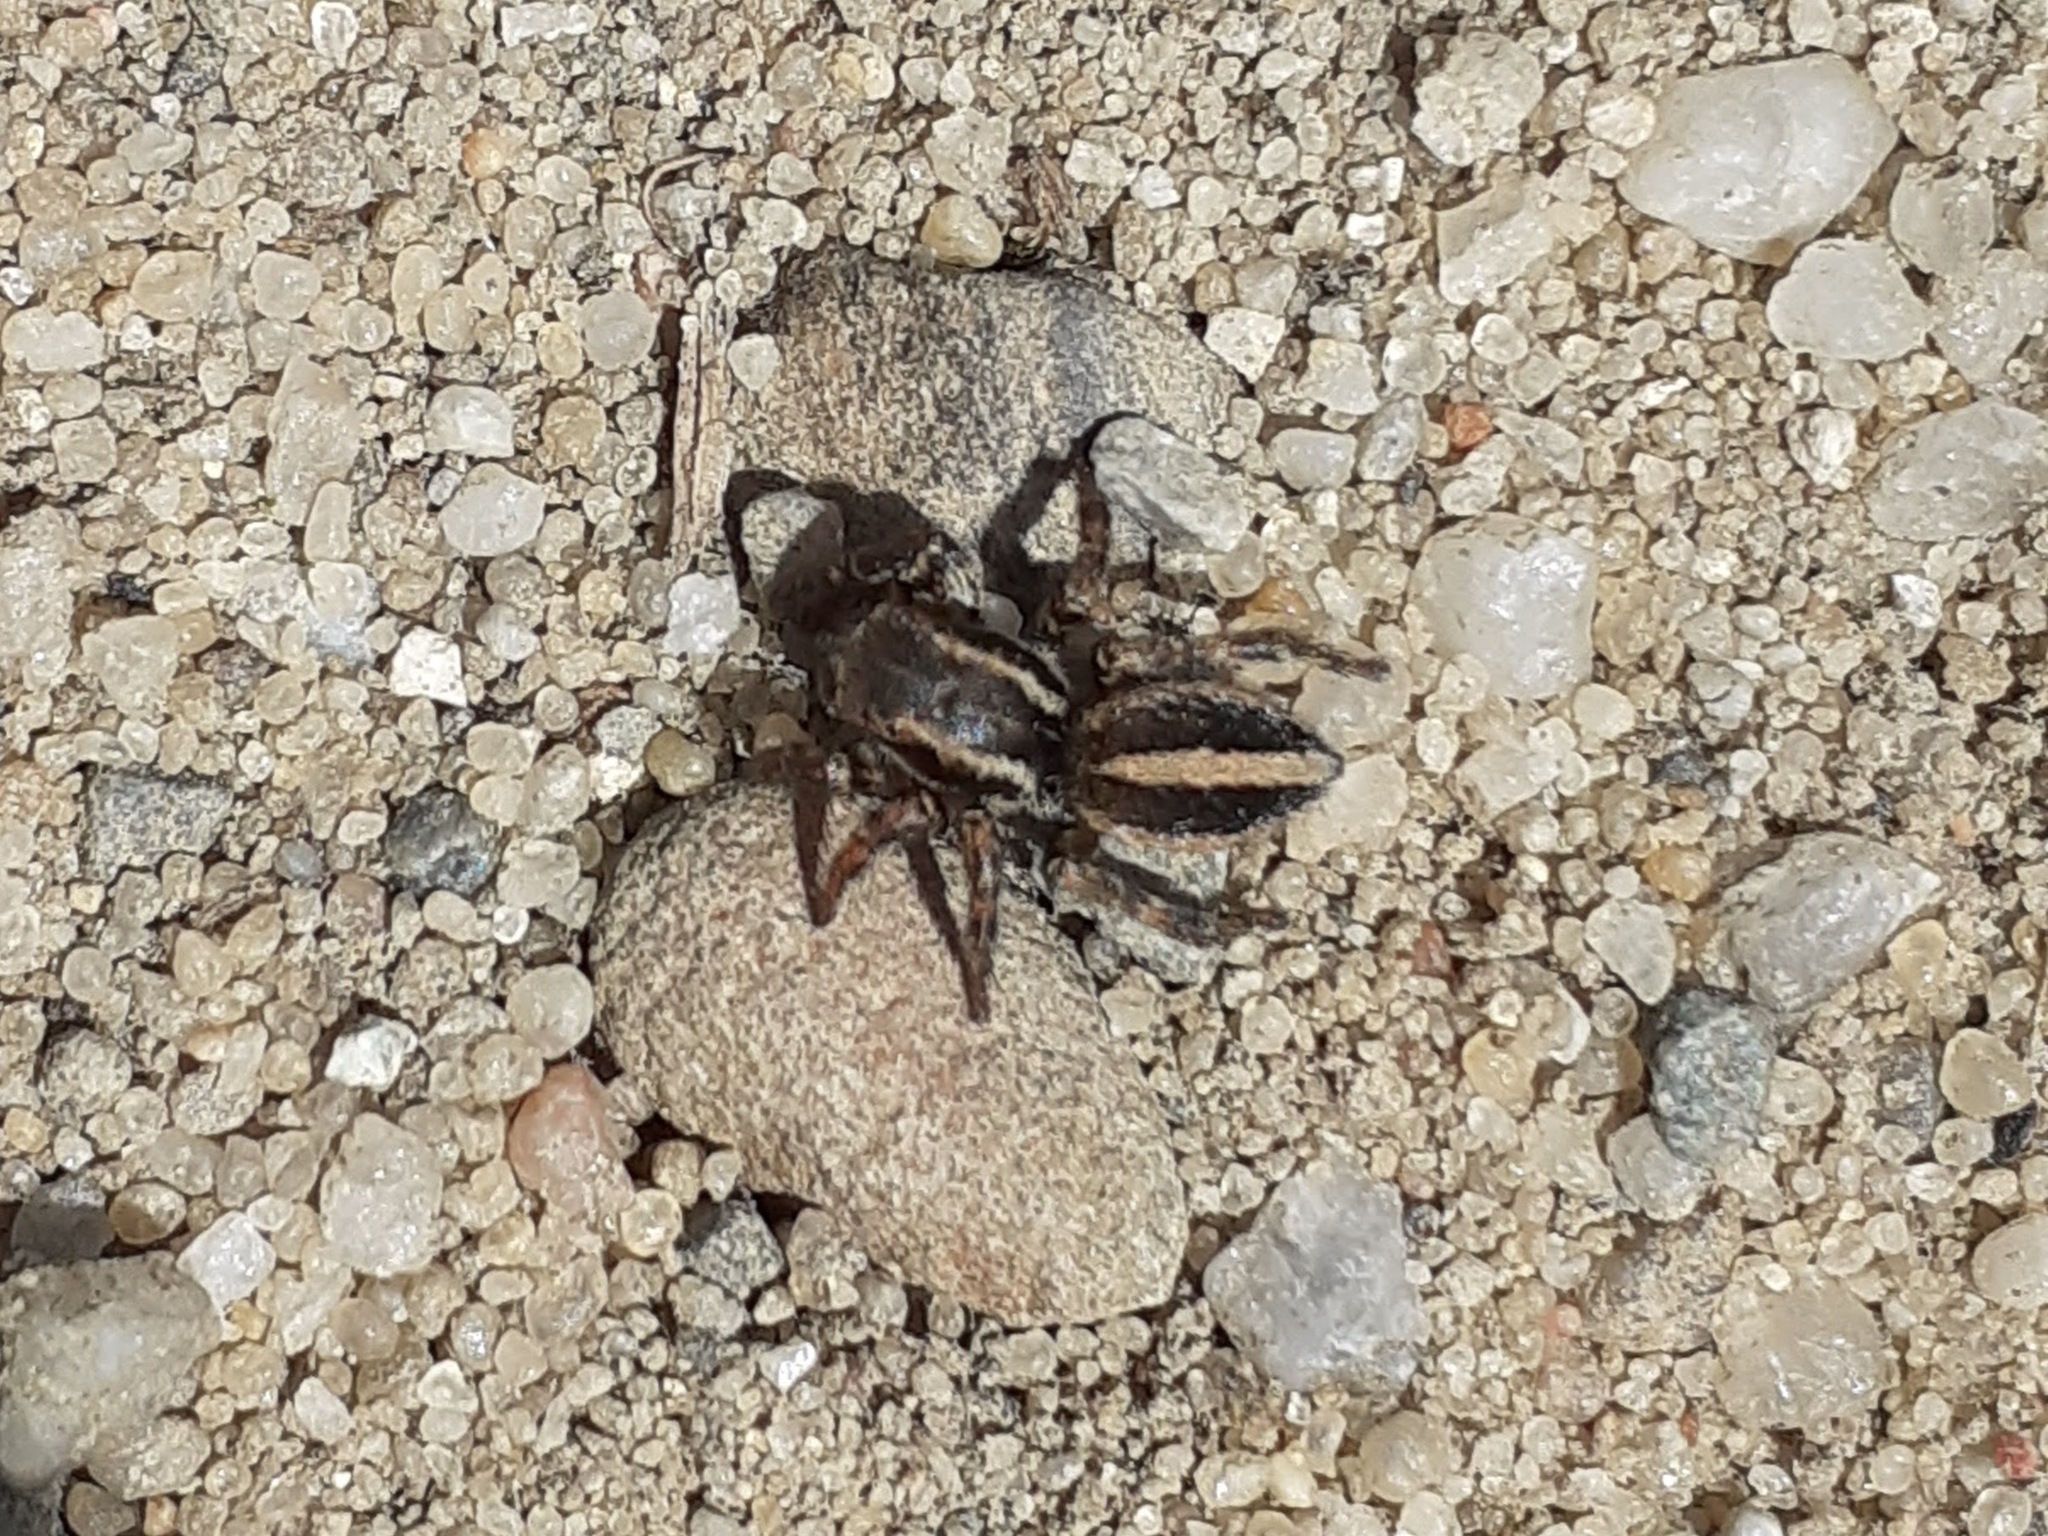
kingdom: Animalia
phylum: Arthropoda
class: Arachnida
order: Araneae
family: Salticidae
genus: Phlegra
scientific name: Phlegra fasciata
